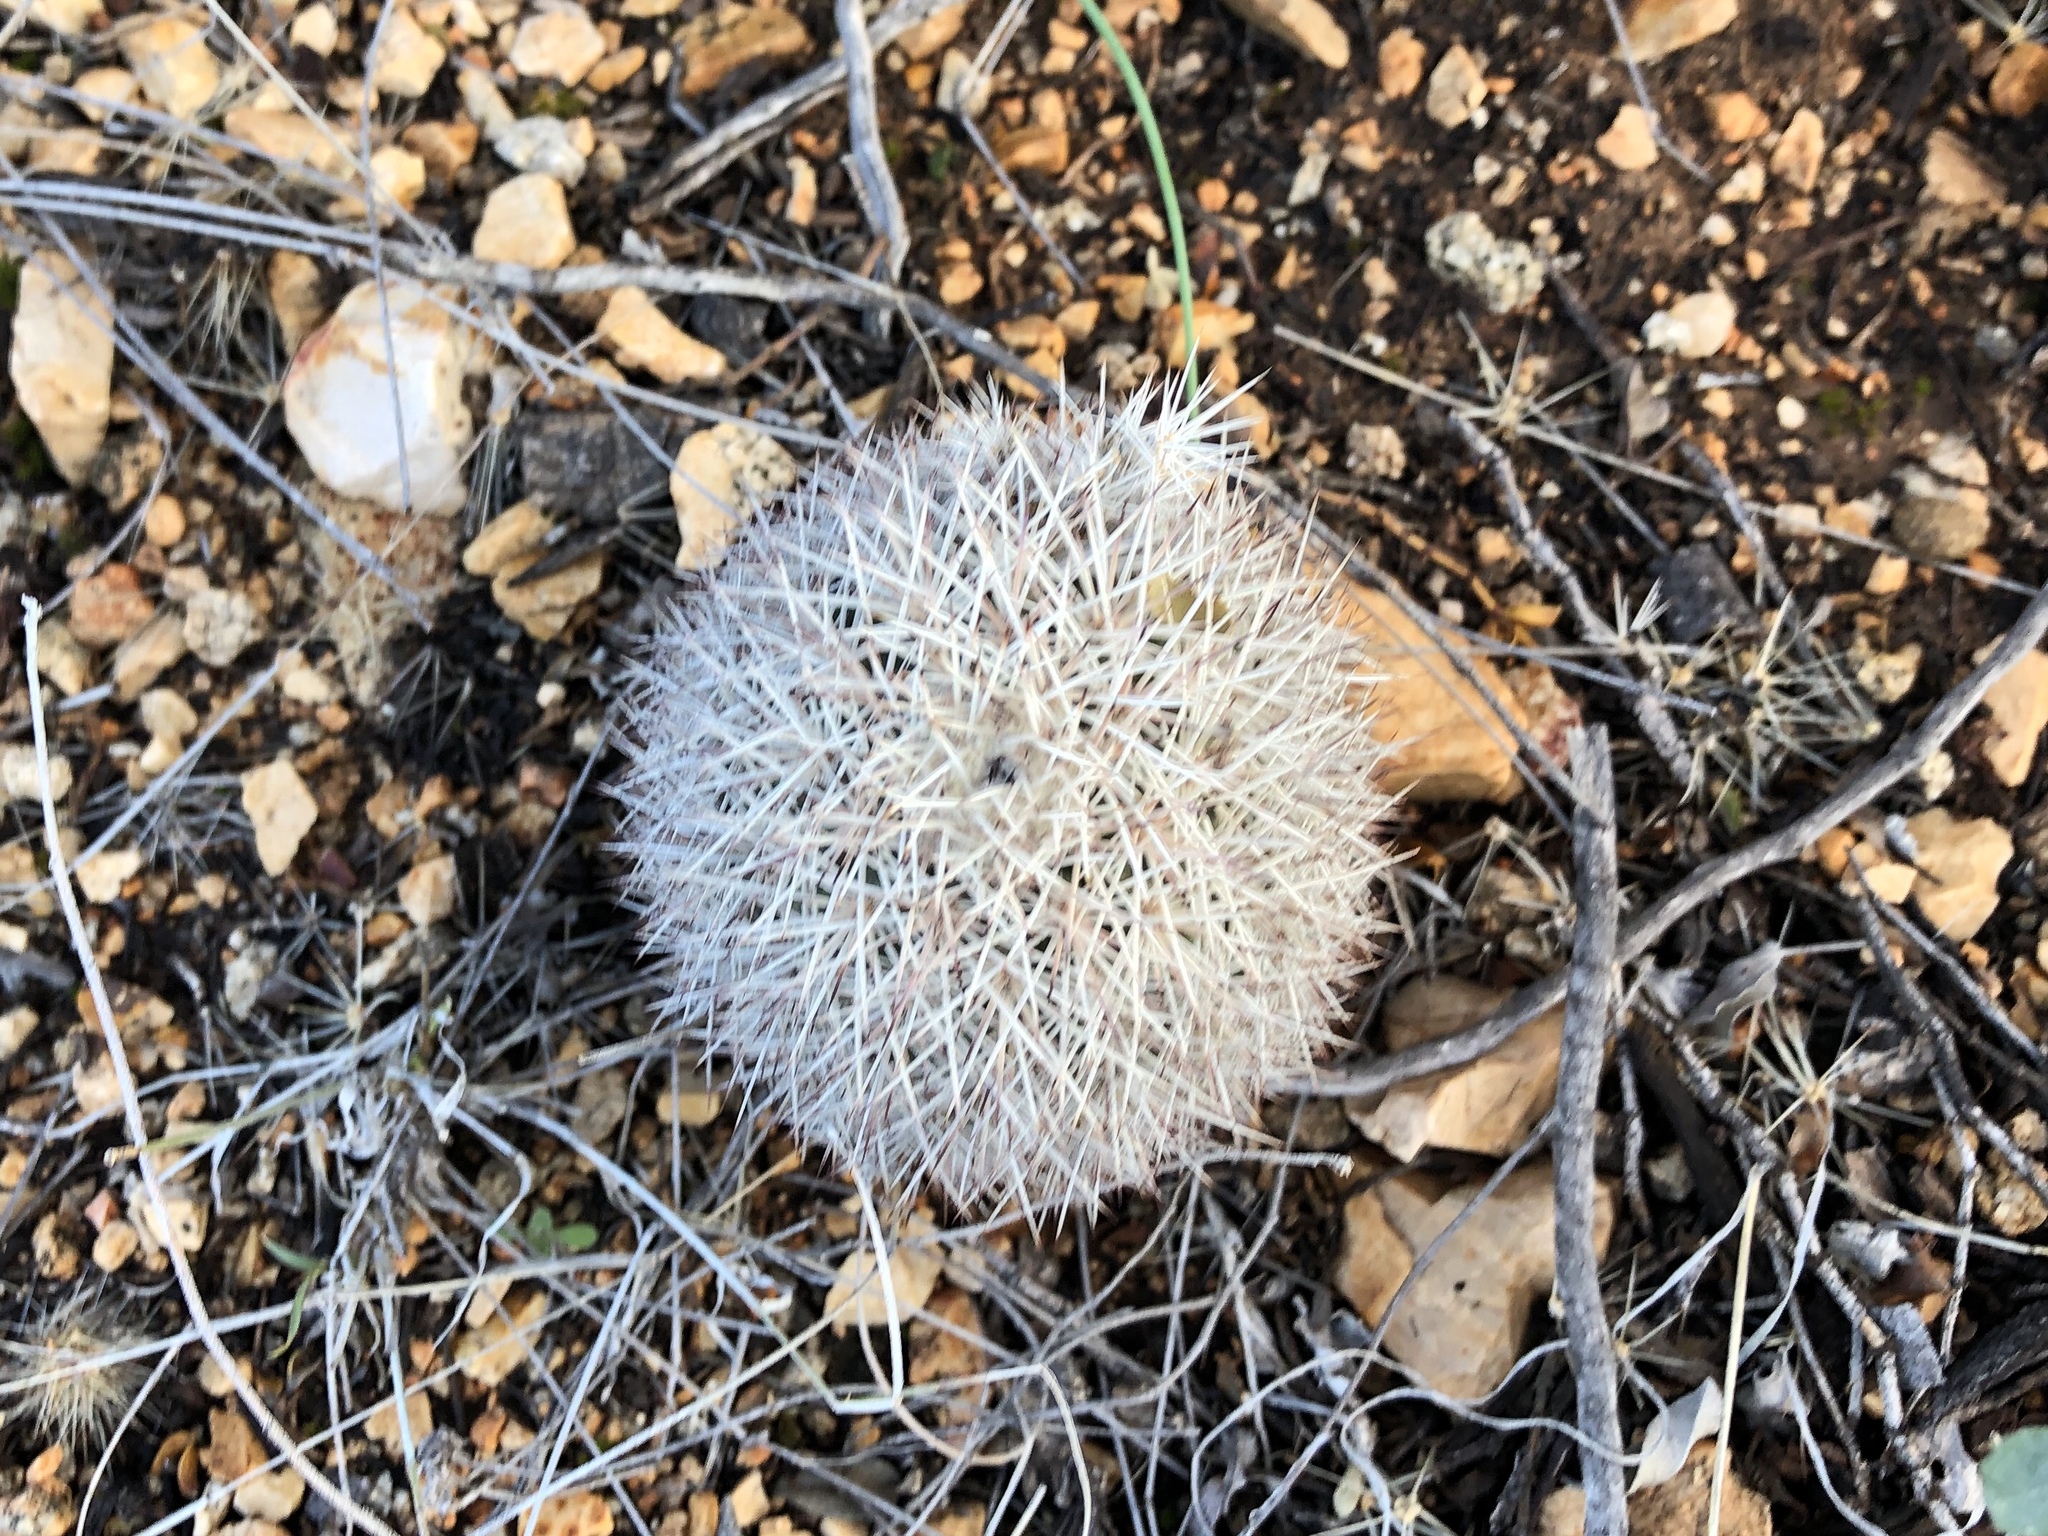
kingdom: Plantae
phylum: Tracheophyta
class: Magnoliopsida
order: Caryophyllales
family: Cactaceae
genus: Echinocereus
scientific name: Echinocereus dasyacanthus
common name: Spiny hedgehog cactus
